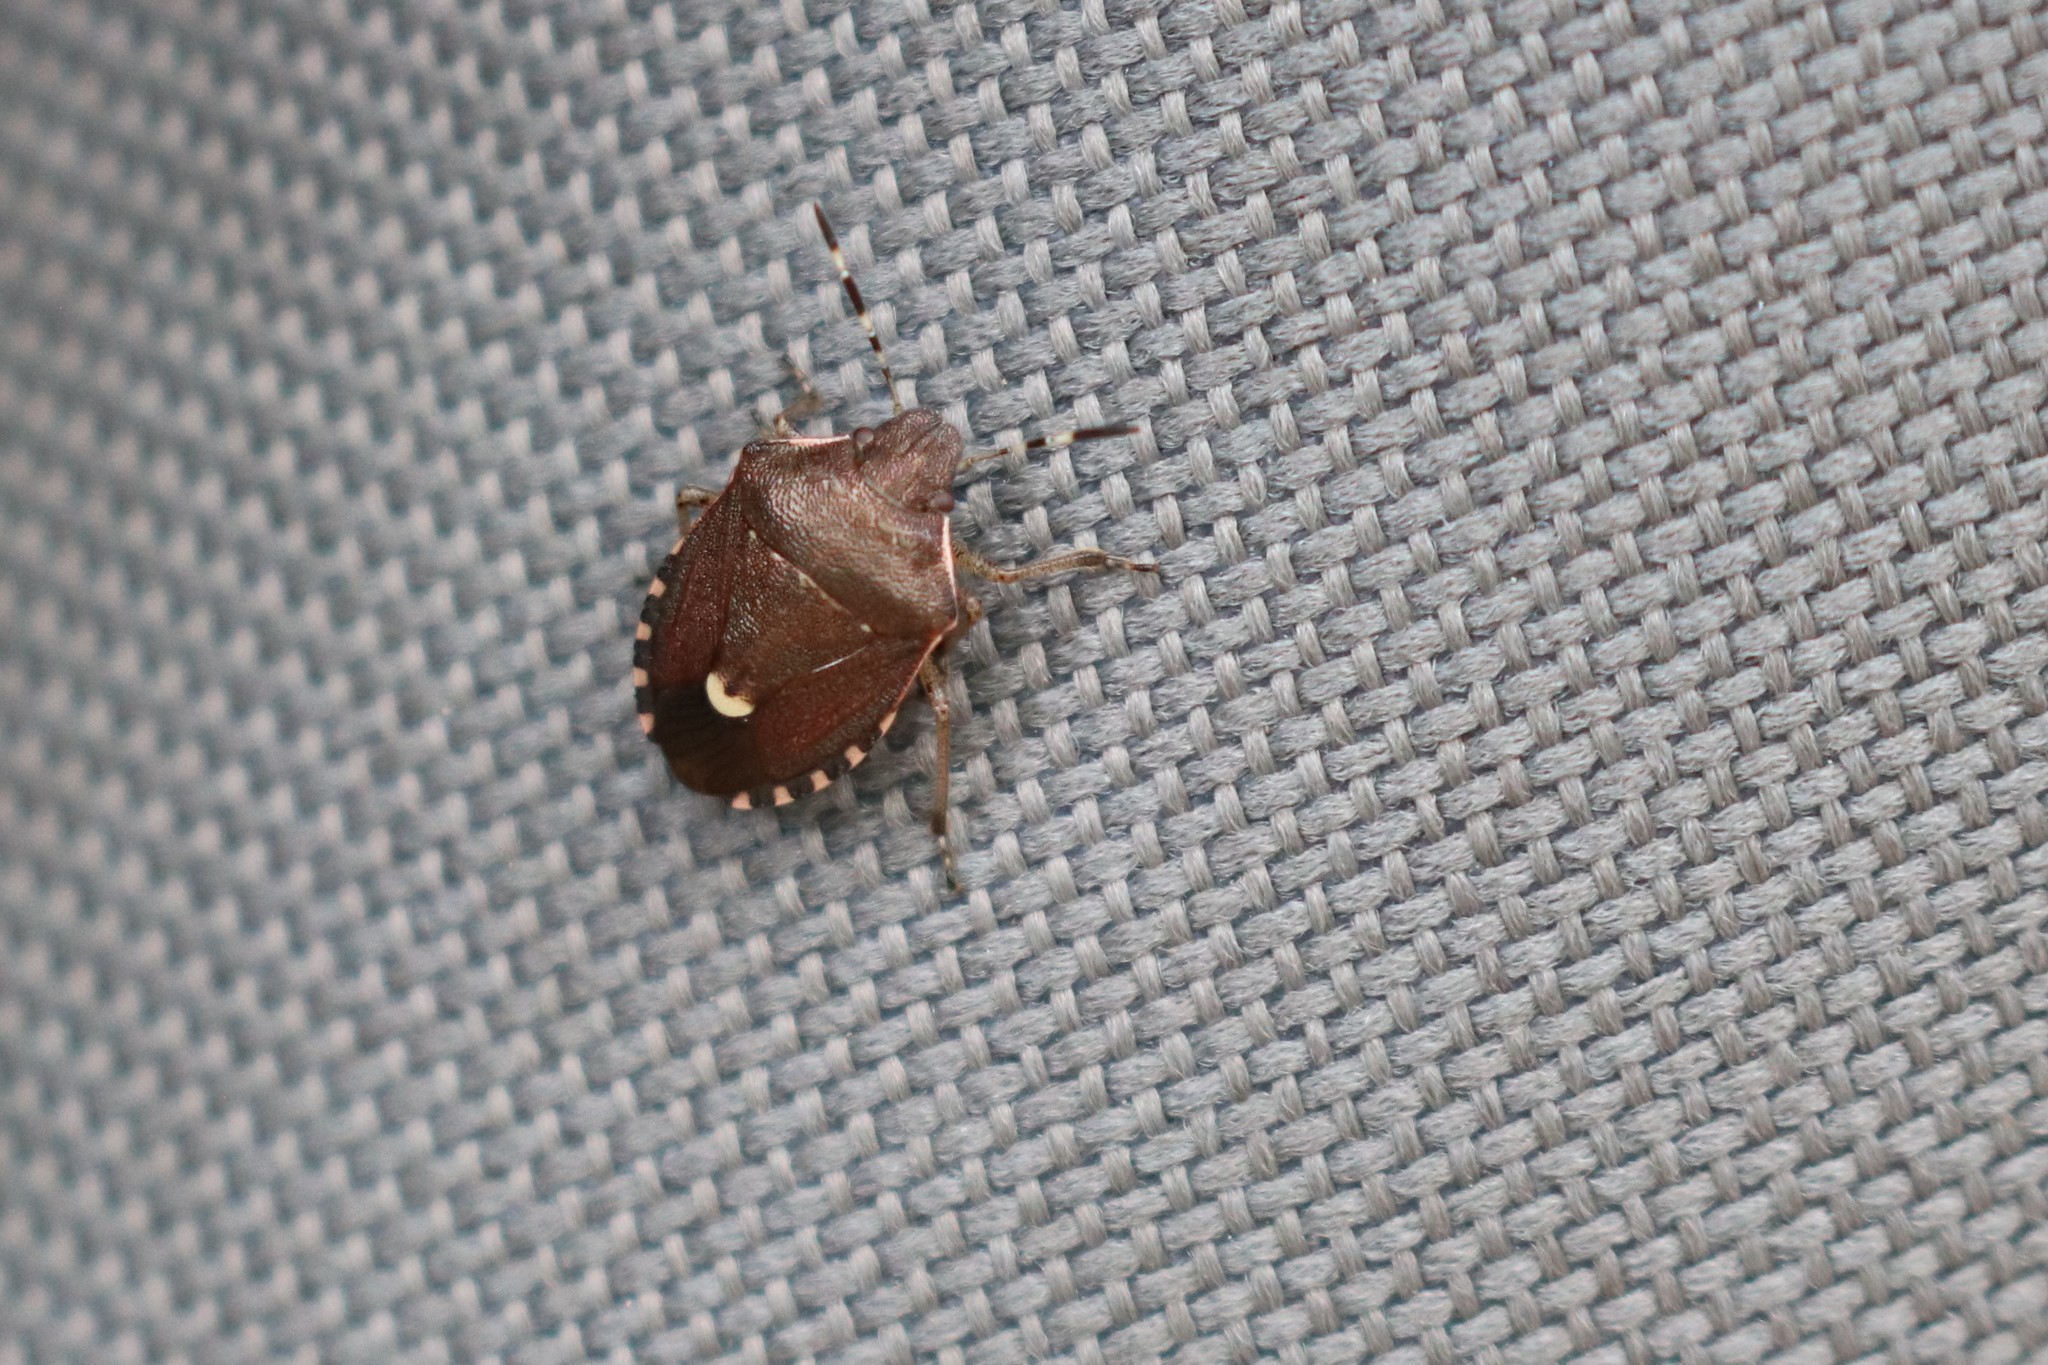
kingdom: Animalia
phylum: Arthropoda
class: Insecta
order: Hemiptera
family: Pentatomidae
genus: Holcostethus
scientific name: Holcostethus sphacelatus
